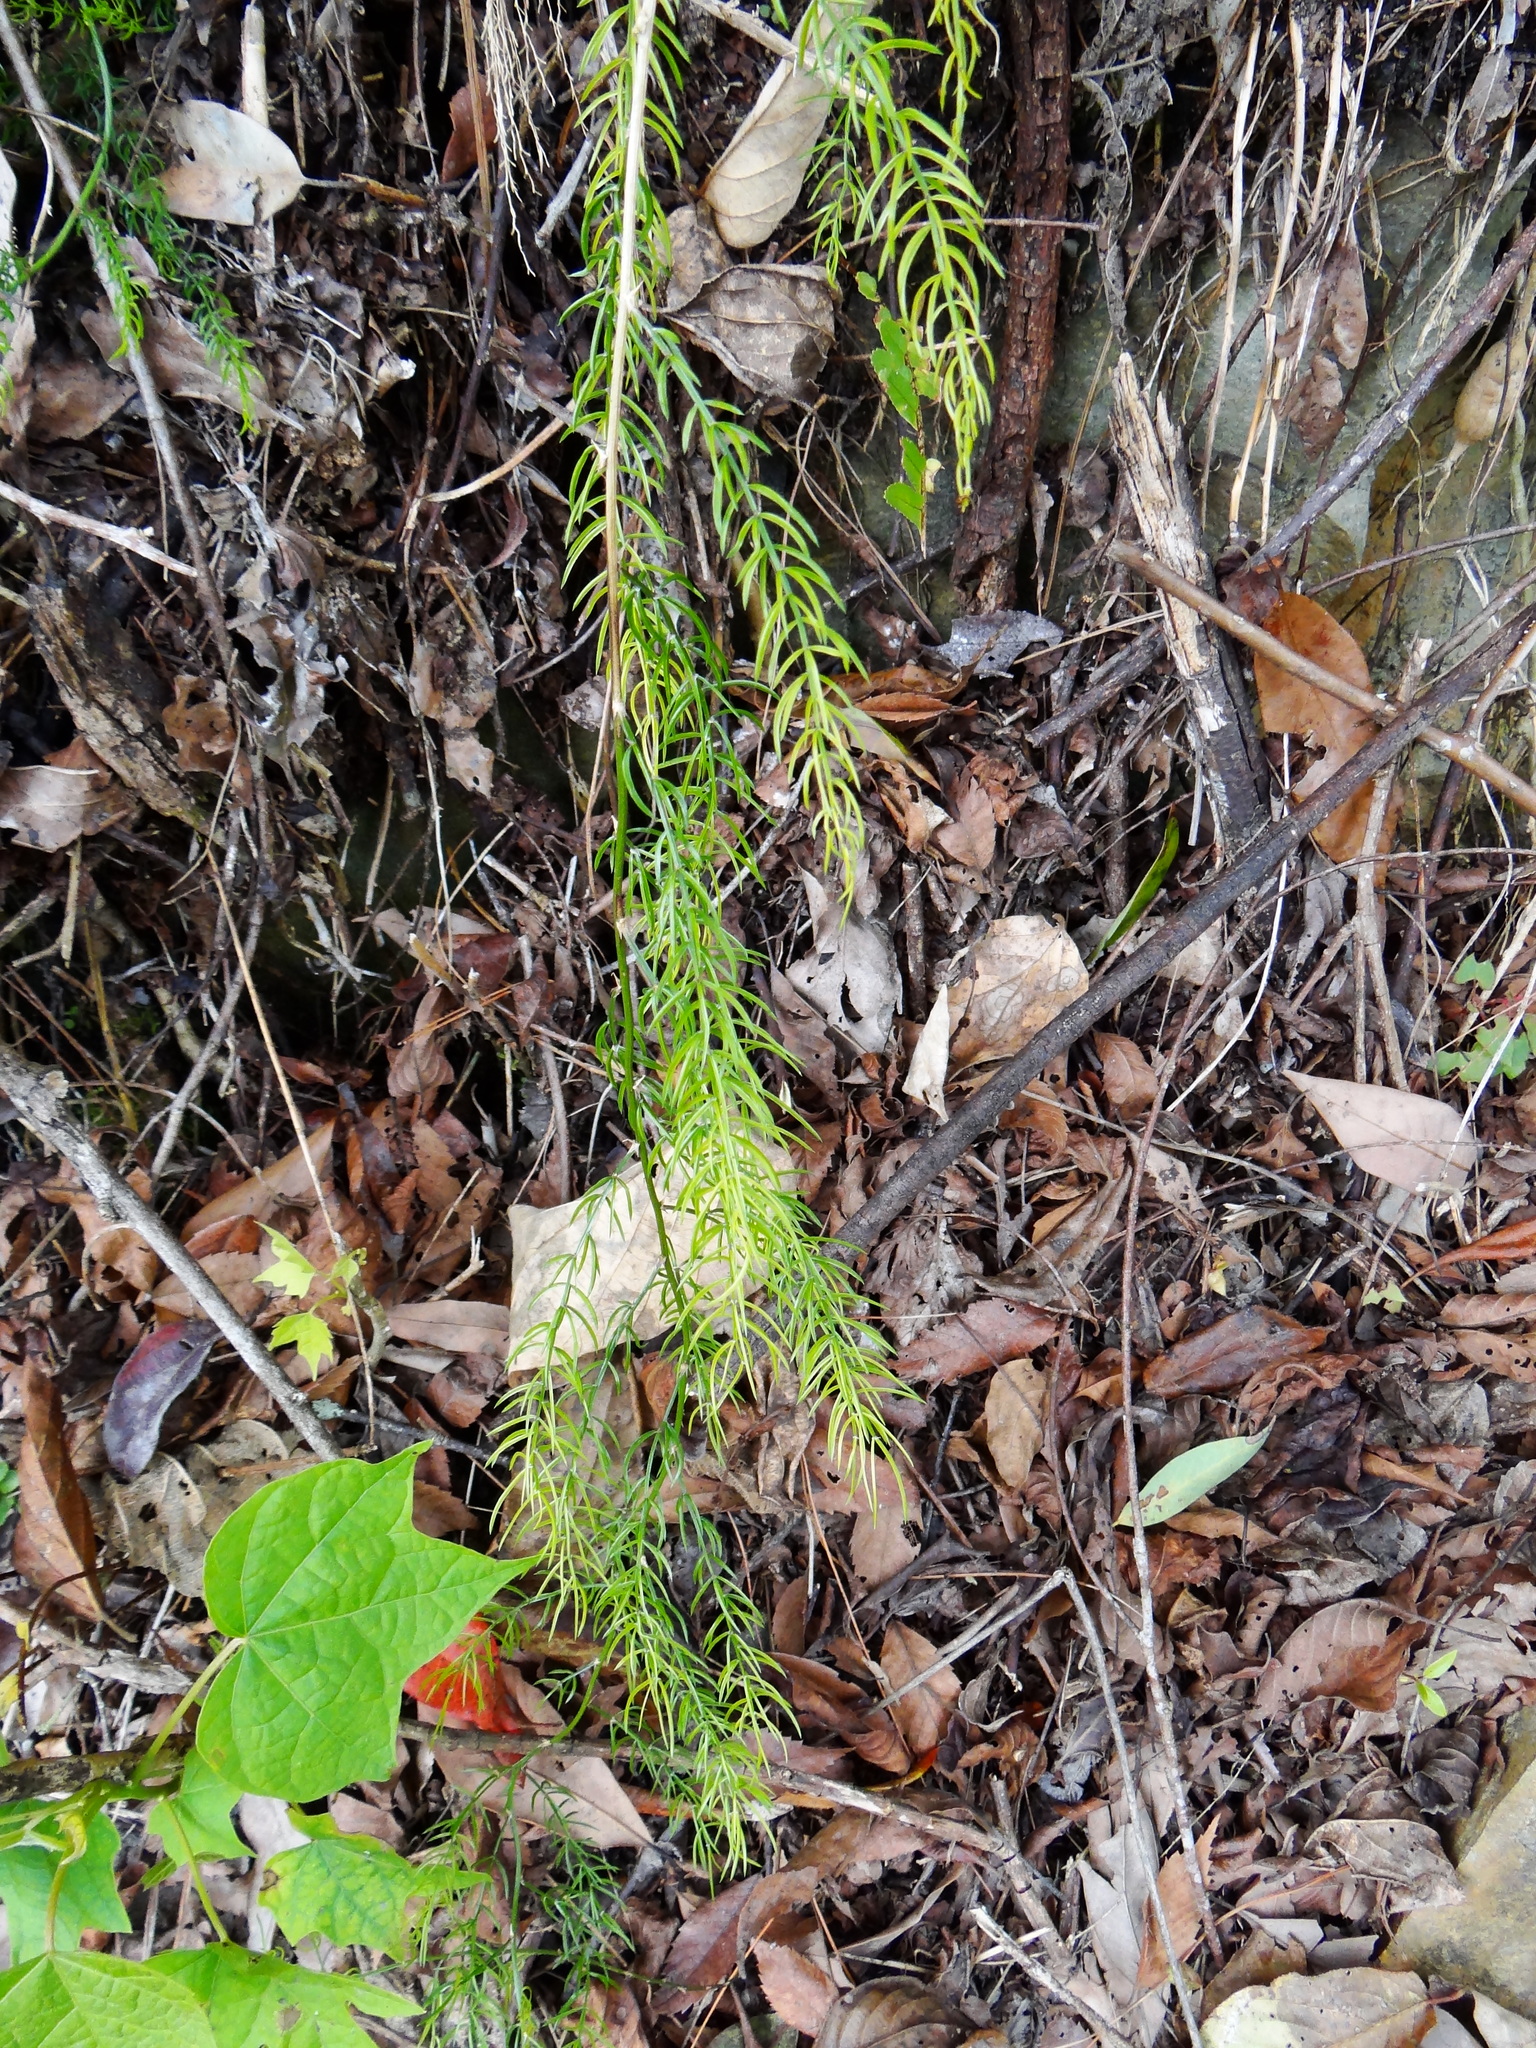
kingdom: Plantae
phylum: Tracheophyta
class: Liliopsida
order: Asparagales
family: Asparagaceae
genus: Asparagus
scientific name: Asparagus cochinchinensis
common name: Chinese asparagus
